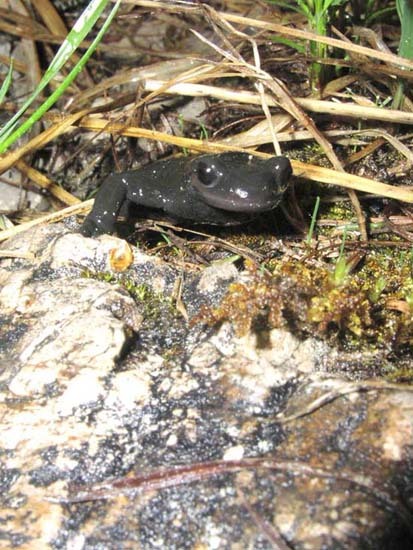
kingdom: Animalia
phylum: Chordata
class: Amphibia
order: Caudata
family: Salamandridae
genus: Salamandra
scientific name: Salamandra atra
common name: Alpine salamander
